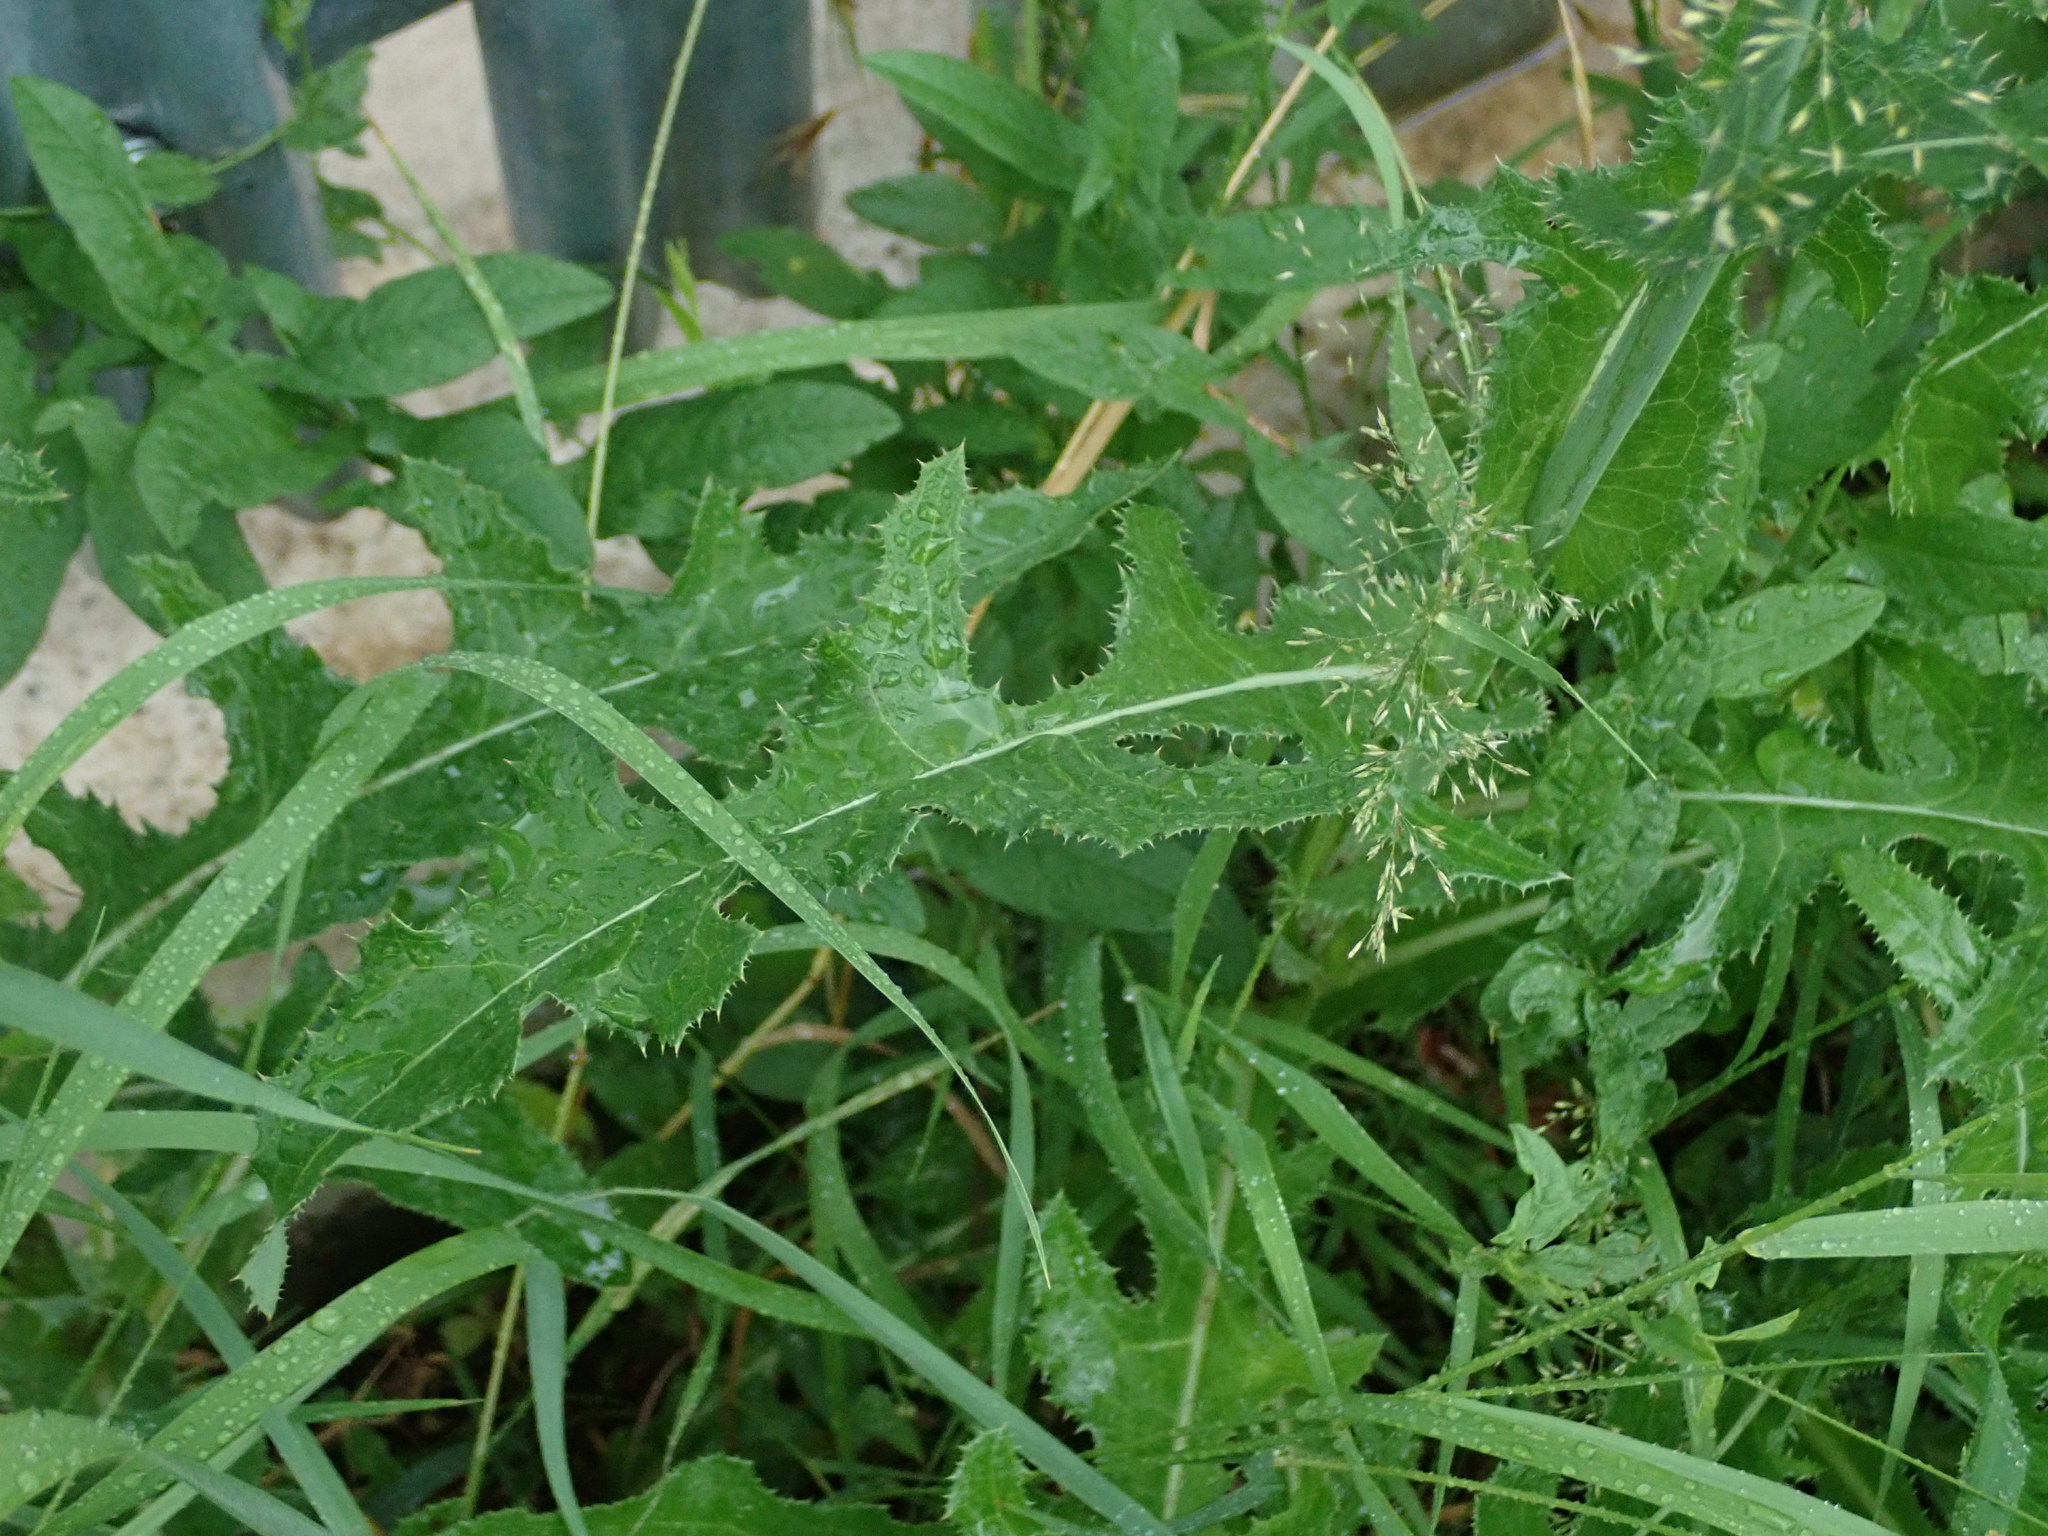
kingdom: Plantae
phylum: Tracheophyta
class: Magnoliopsida
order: Asterales
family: Asteraceae
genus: Sonchus
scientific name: Sonchus arvensis
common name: Perennial sow-thistle
